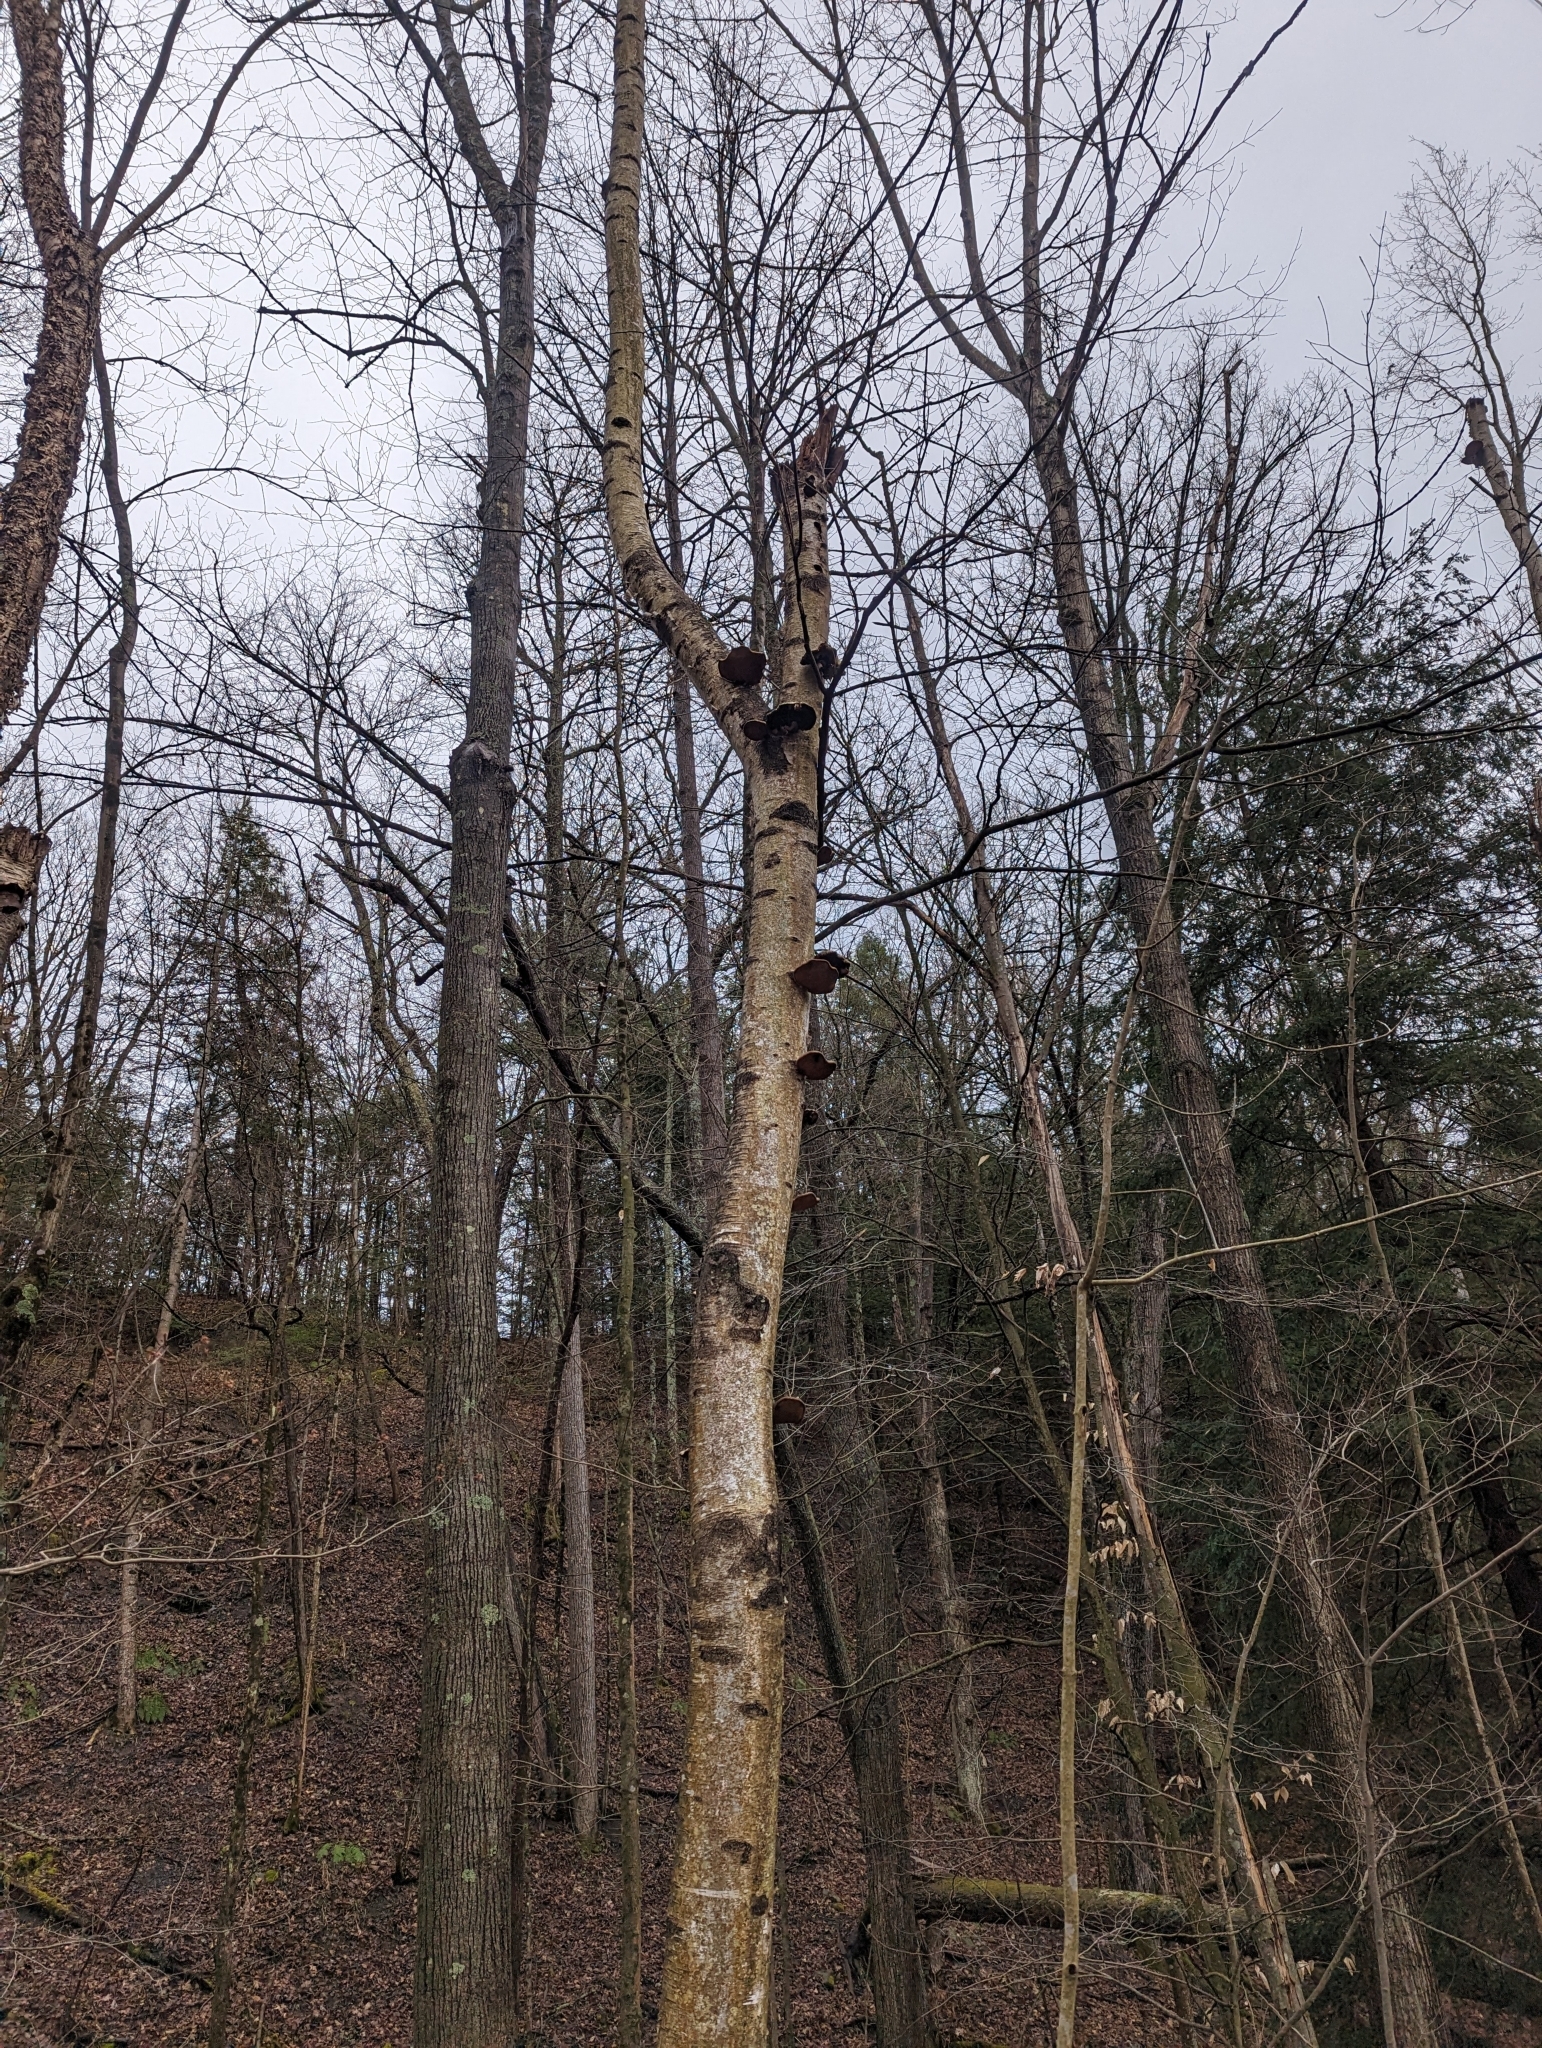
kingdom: Fungi
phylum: Basidiomycota
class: Agaricomycetes
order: Polyporales
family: Fomitopsidaceae
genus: Fomitopsis
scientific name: Fomitopsis betulina
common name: Birch polypore
